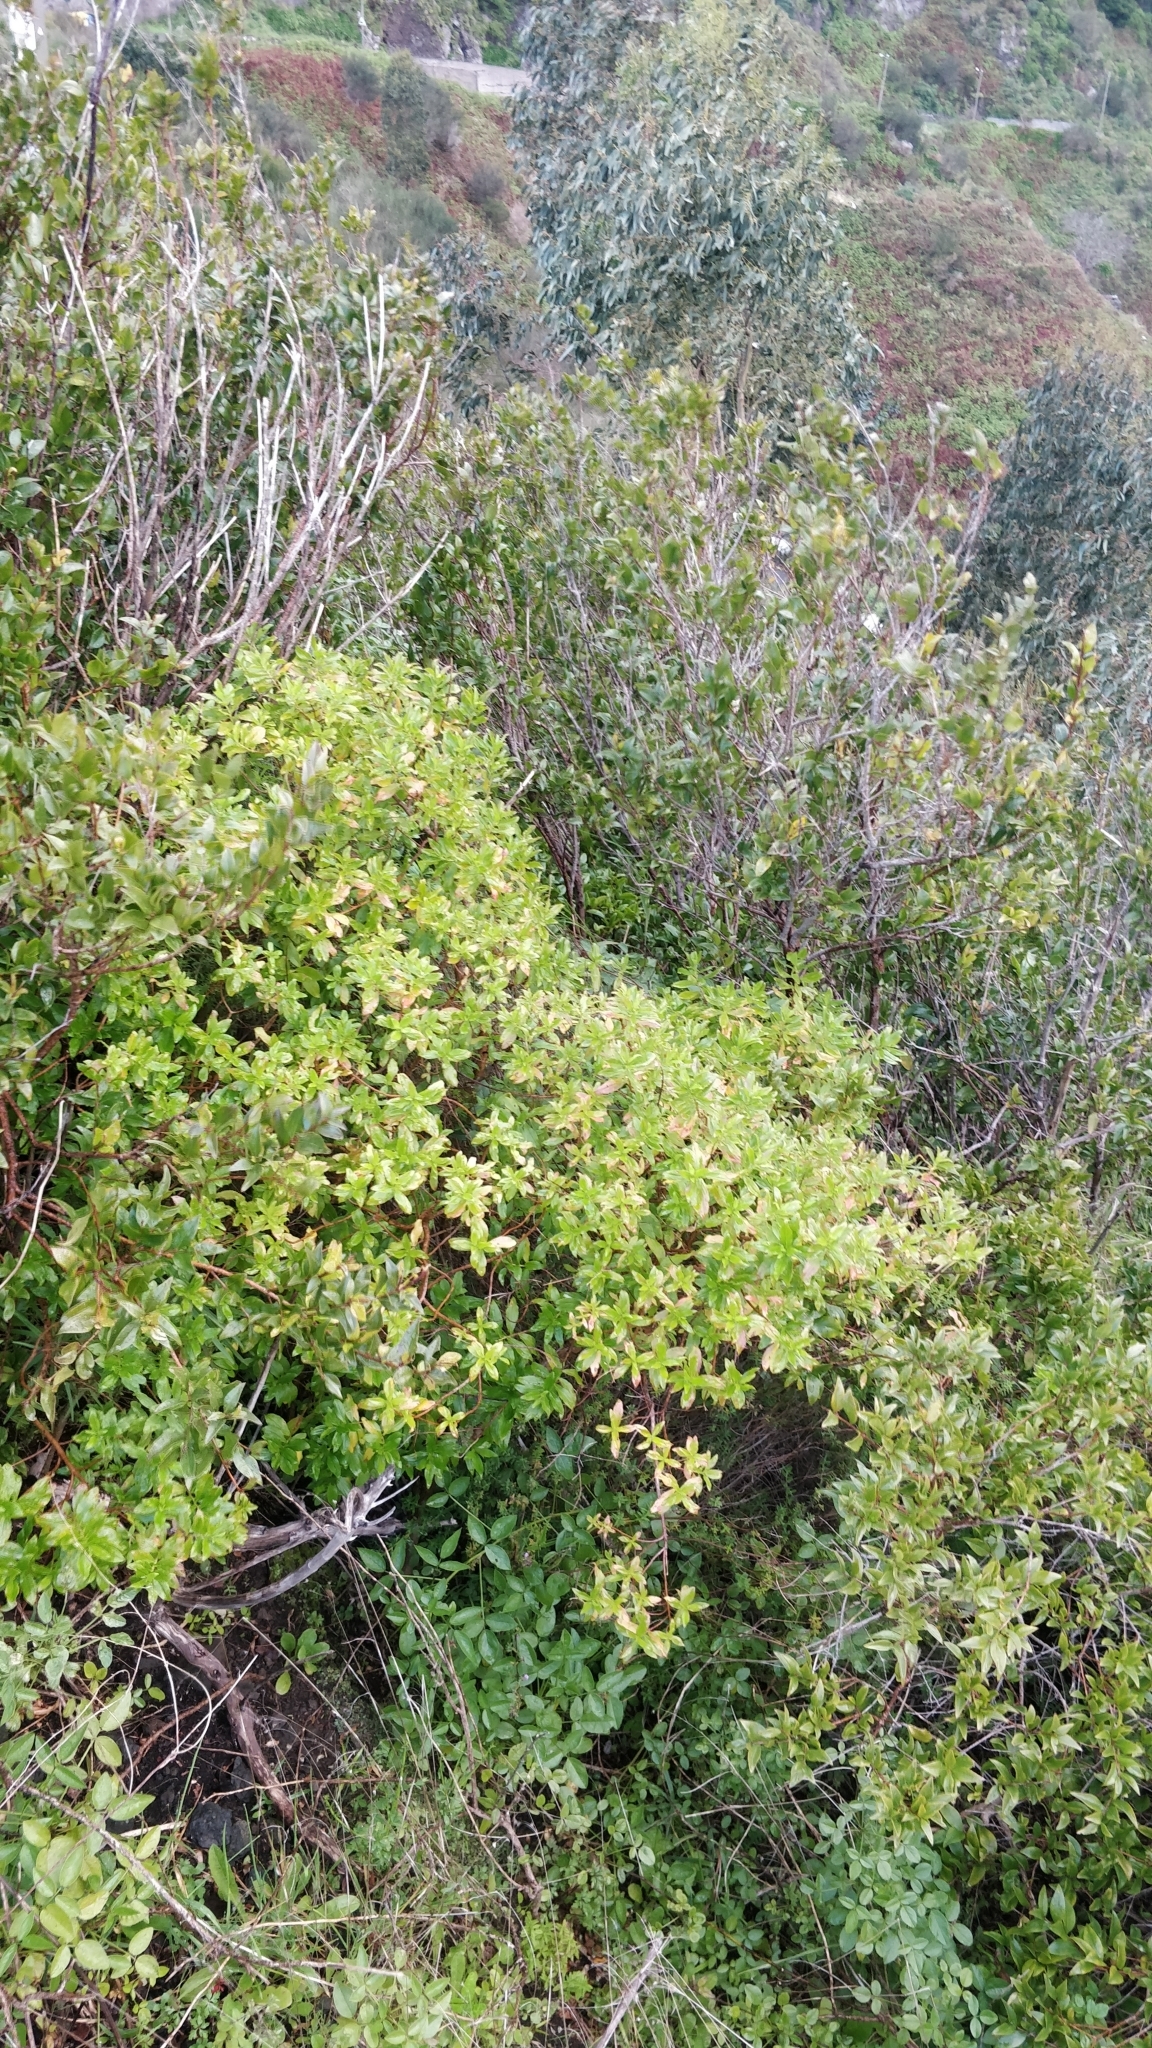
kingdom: Plantae
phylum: Tracheophyta
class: Magnoliopsida
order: Malpighiales
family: Hypericaceae
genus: Hypericum
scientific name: Hypericum glandulosum
